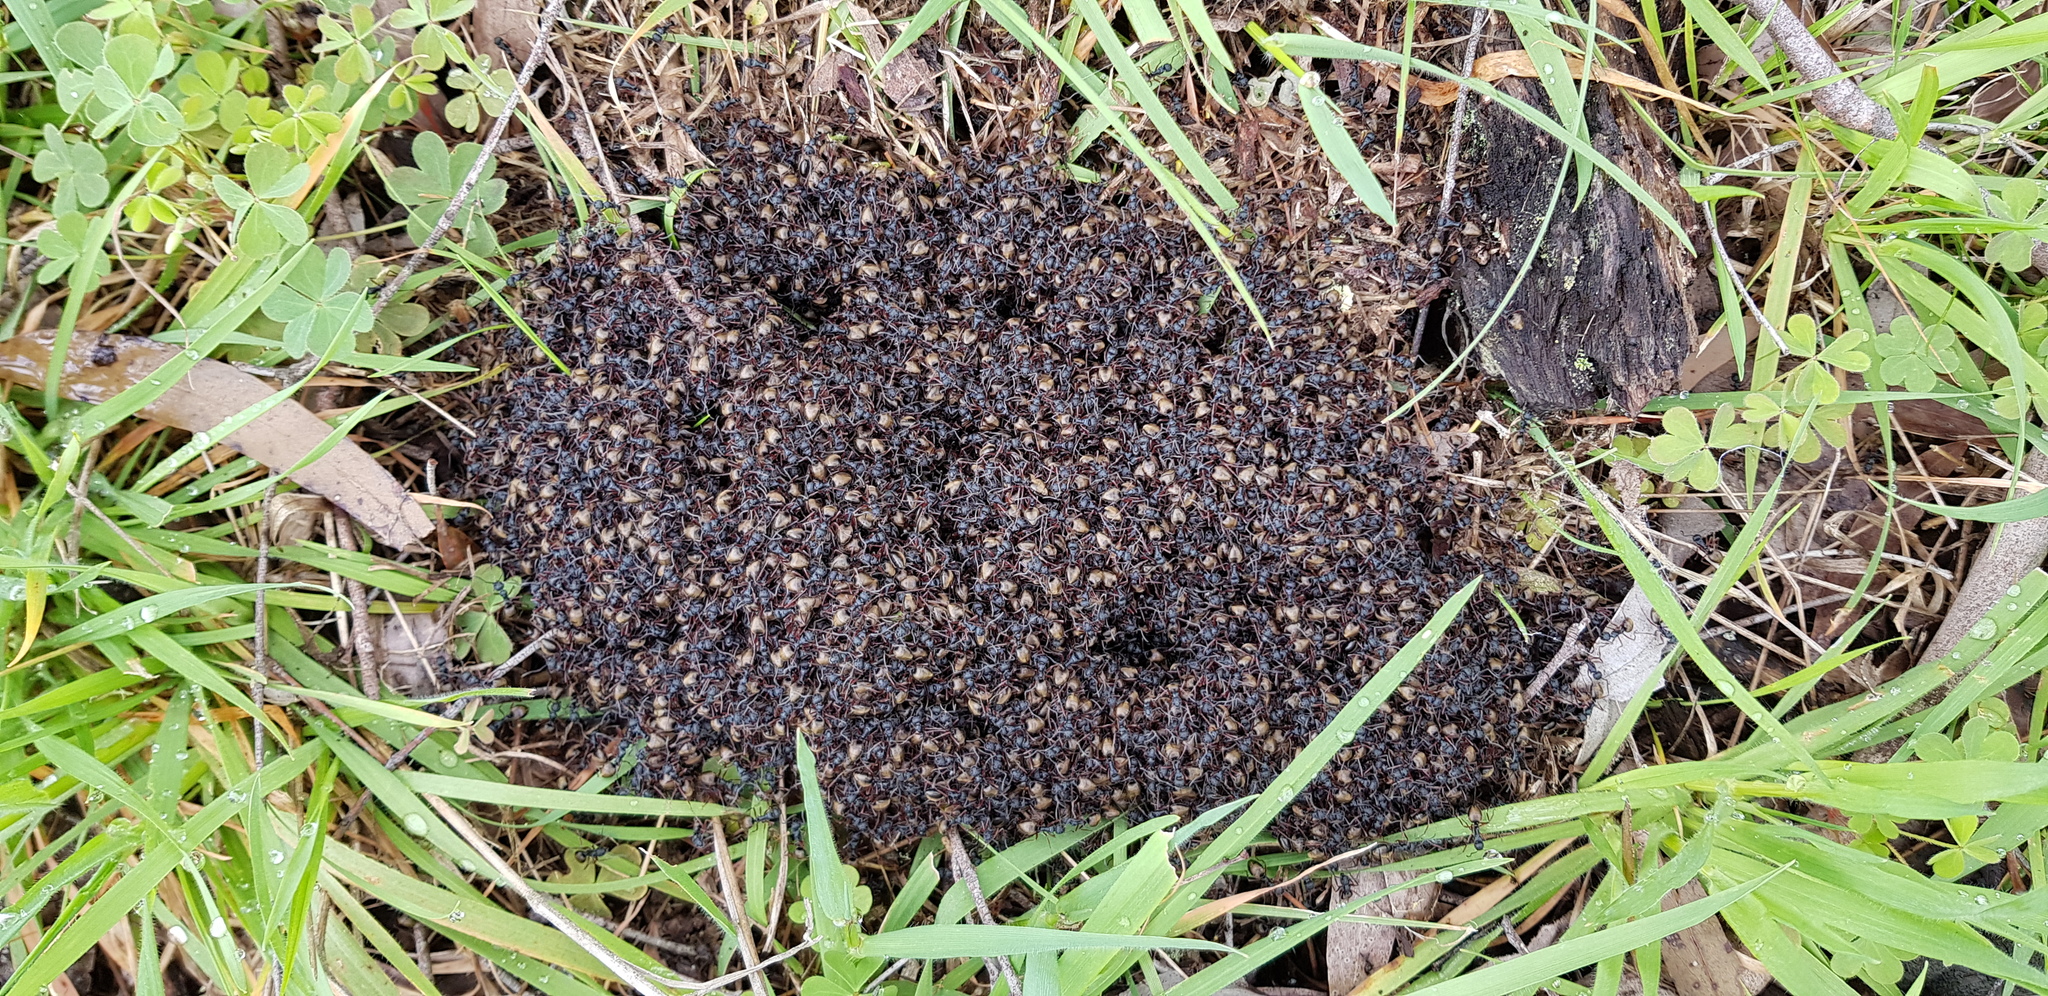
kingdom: Animalia
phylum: Arthropoda
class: Insecta
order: Hymenoptera
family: Formicidae
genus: Dolichoderus
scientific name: Dolichoderus doriae
